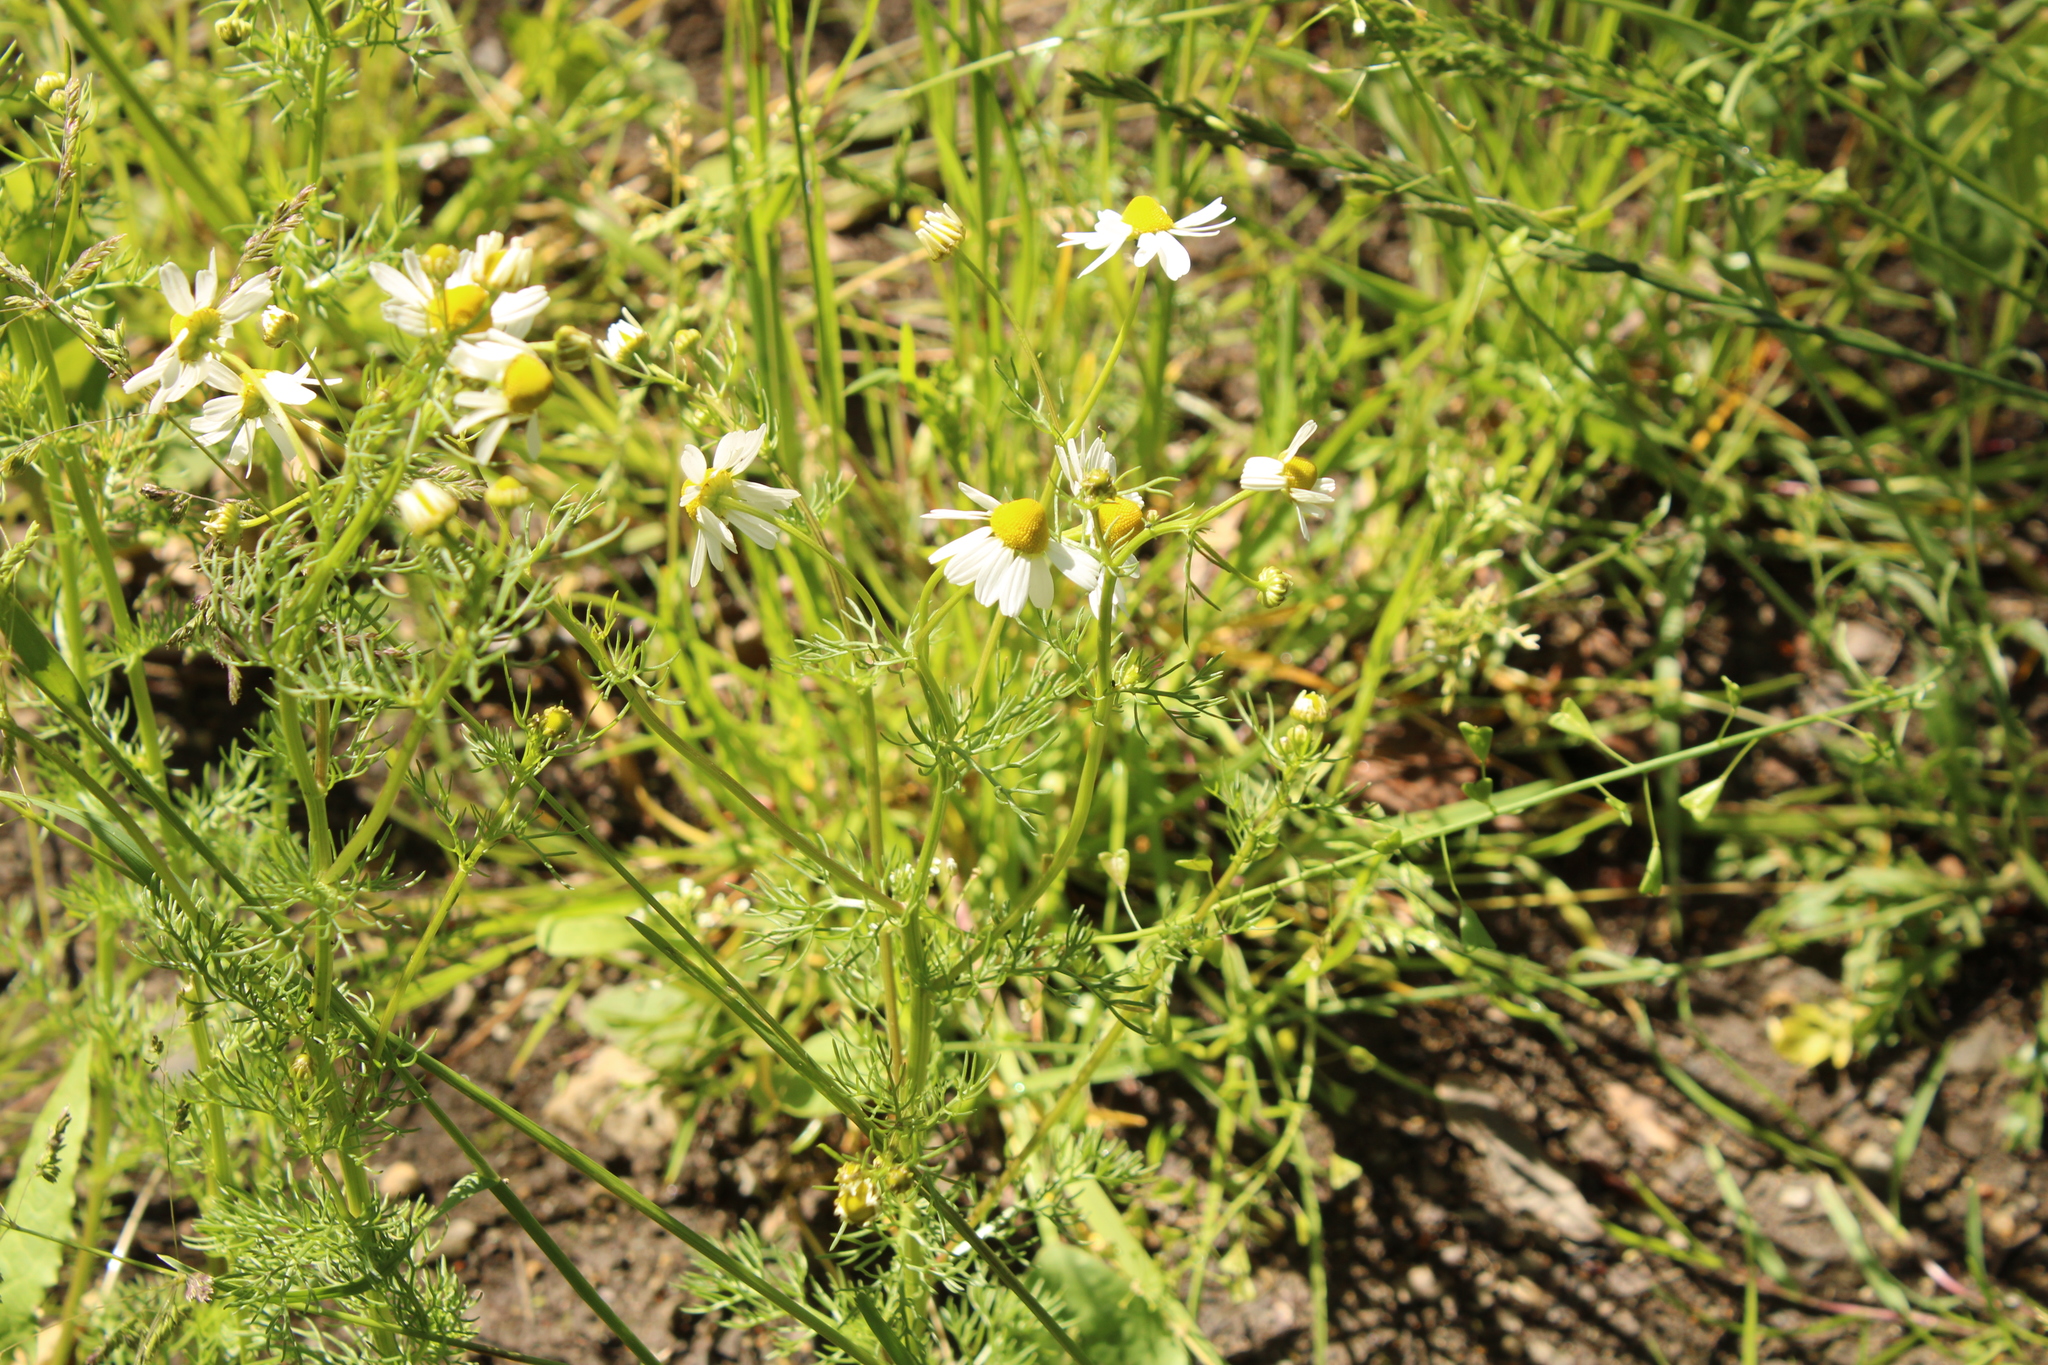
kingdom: Plantae
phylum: Tracheophyta
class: Magnoliopsida
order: Asterales
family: Asteraceae
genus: Matricaria
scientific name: Matricaria chamomilla
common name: Scented mayweed
